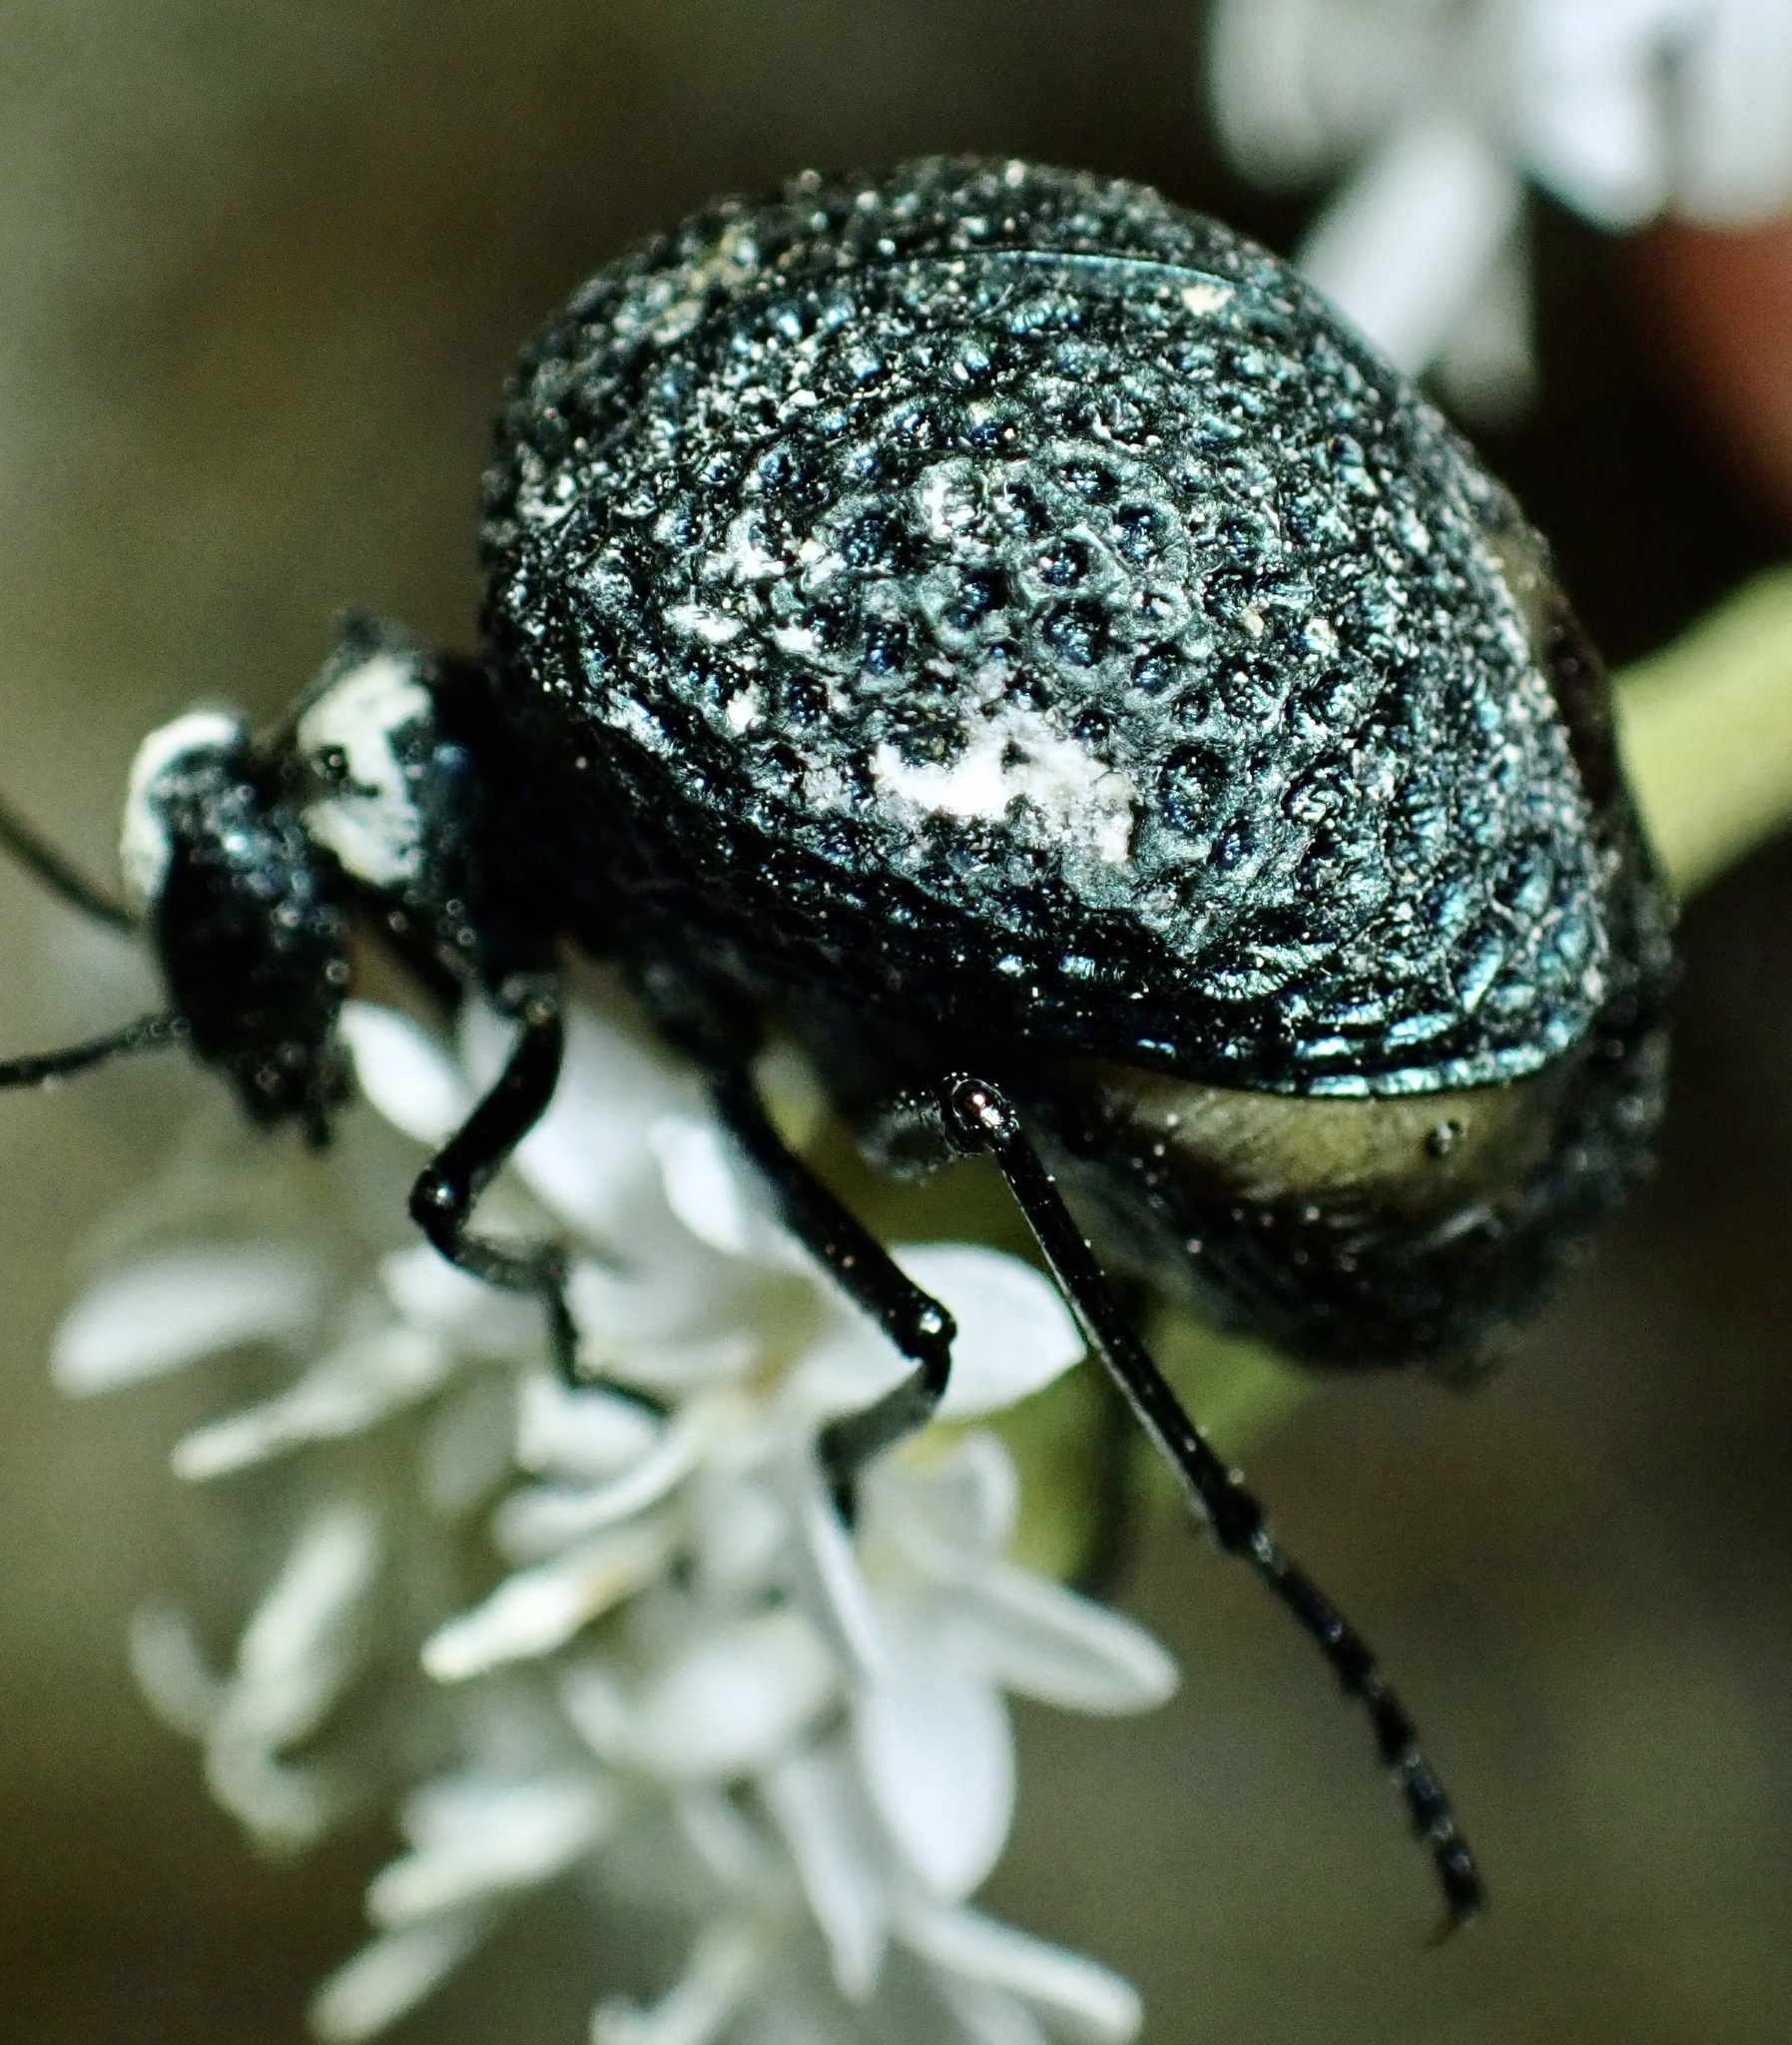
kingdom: Animalia
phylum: Arthropoda
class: Insecta
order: Coleoptera
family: Meloidae
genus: Cysteodemus
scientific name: Cysteodemus armatus
